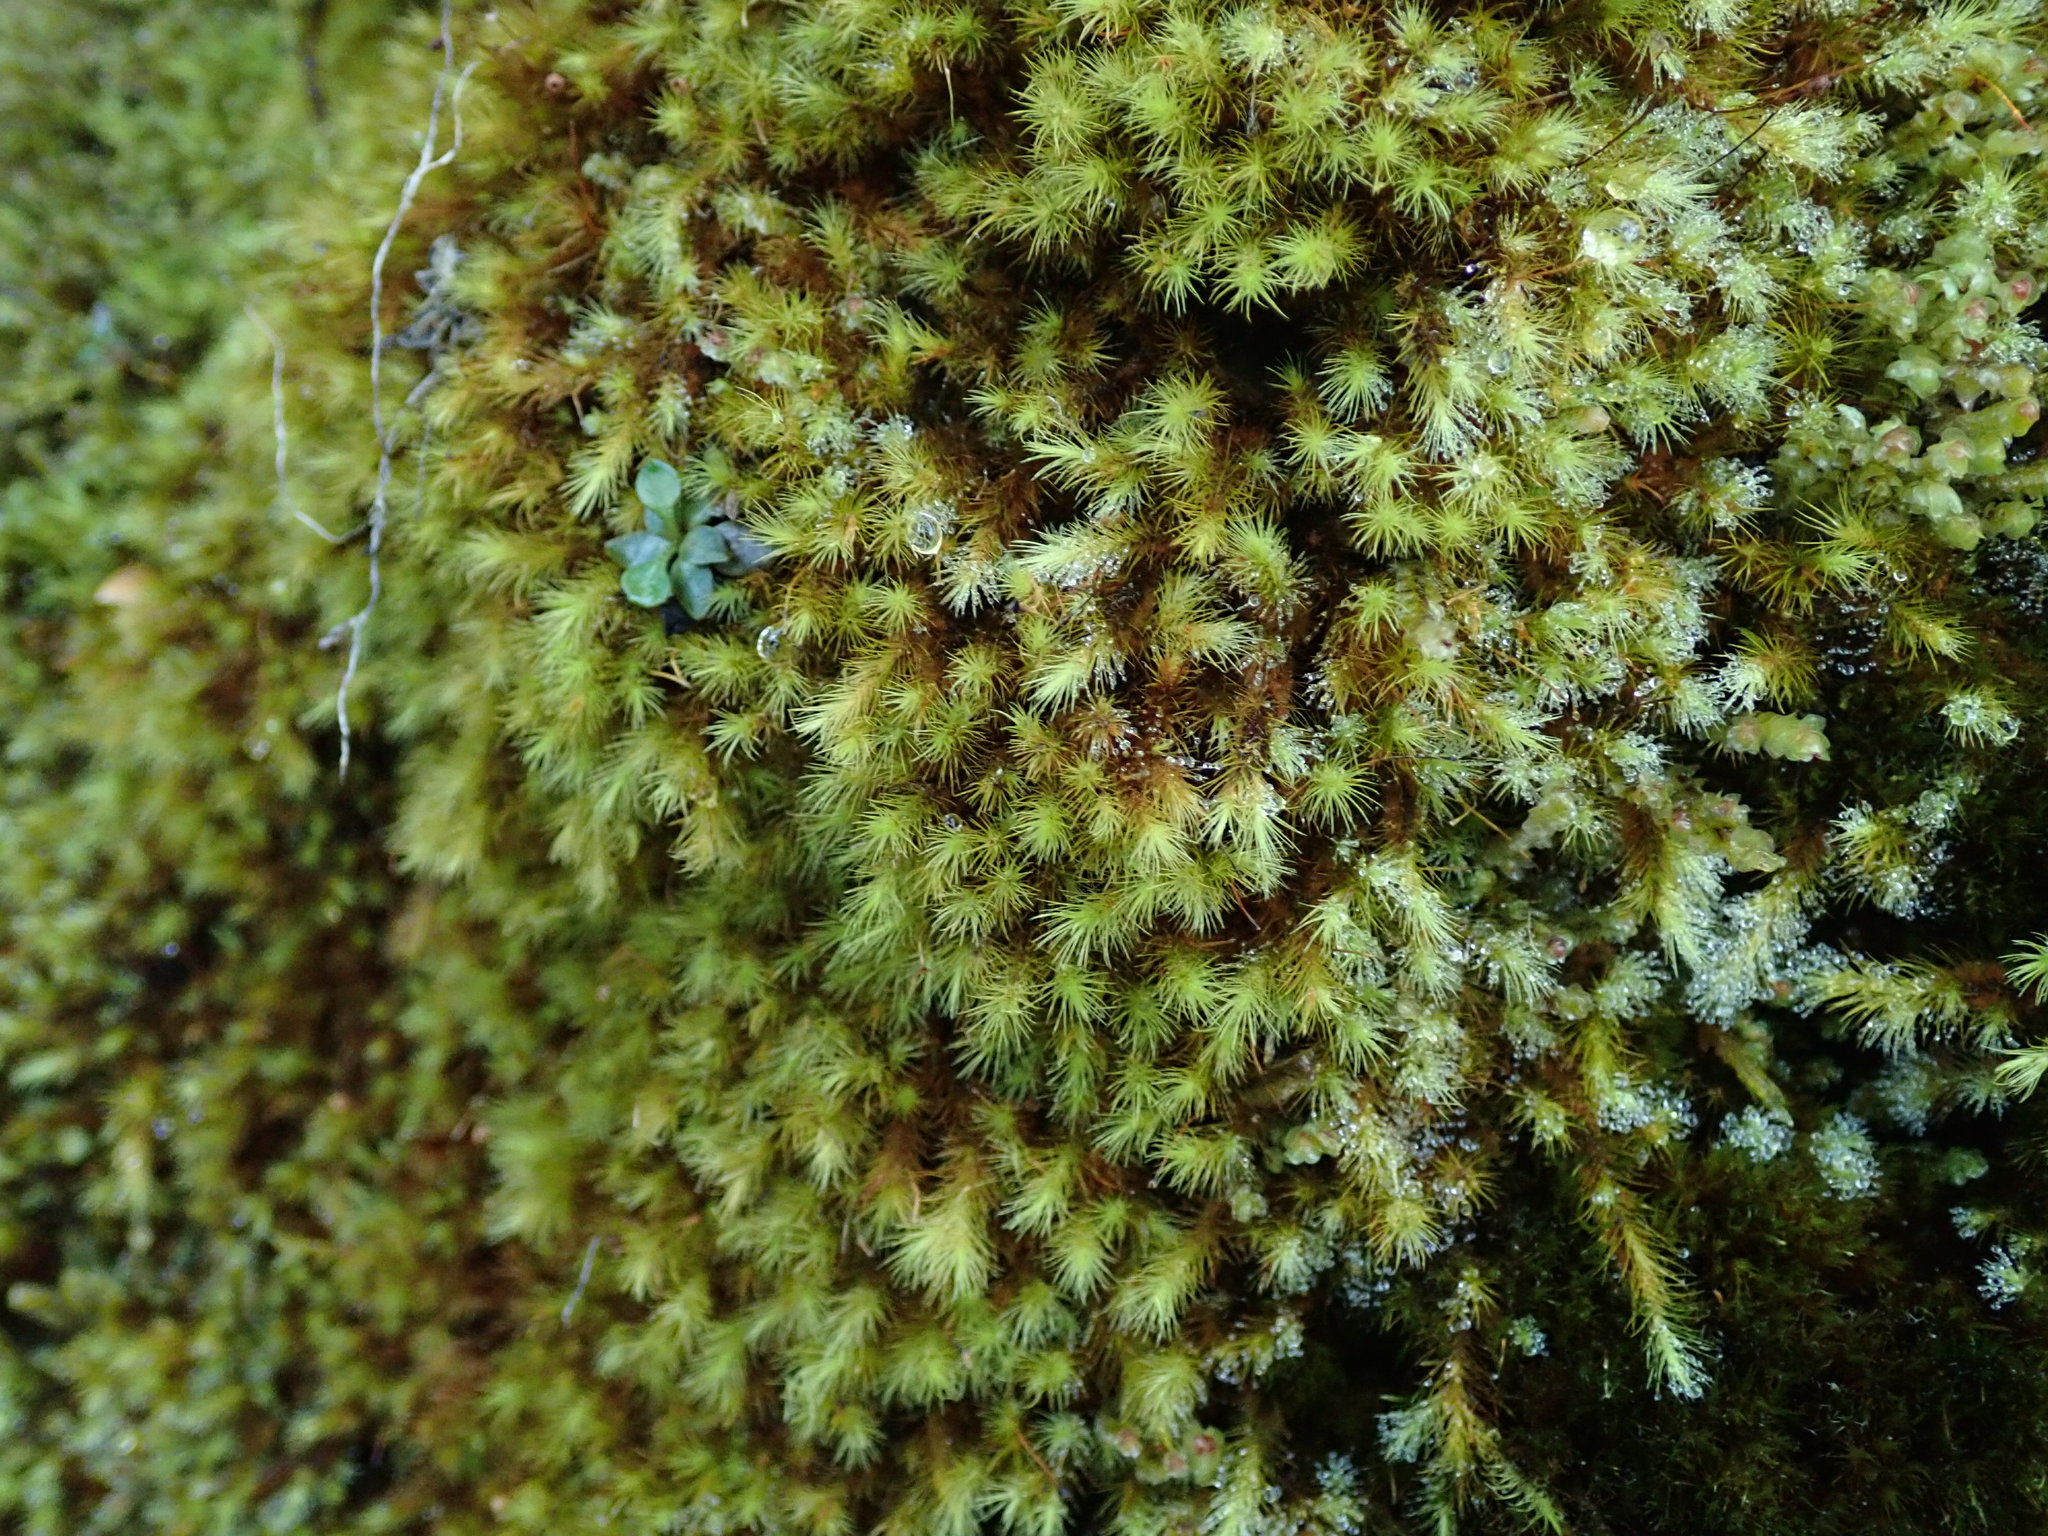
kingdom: Plantae
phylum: Bryophyta
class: Bryopsida
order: Bartramiales
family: Bartramiaceae
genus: Anacolia
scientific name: Anacolia menziesii
